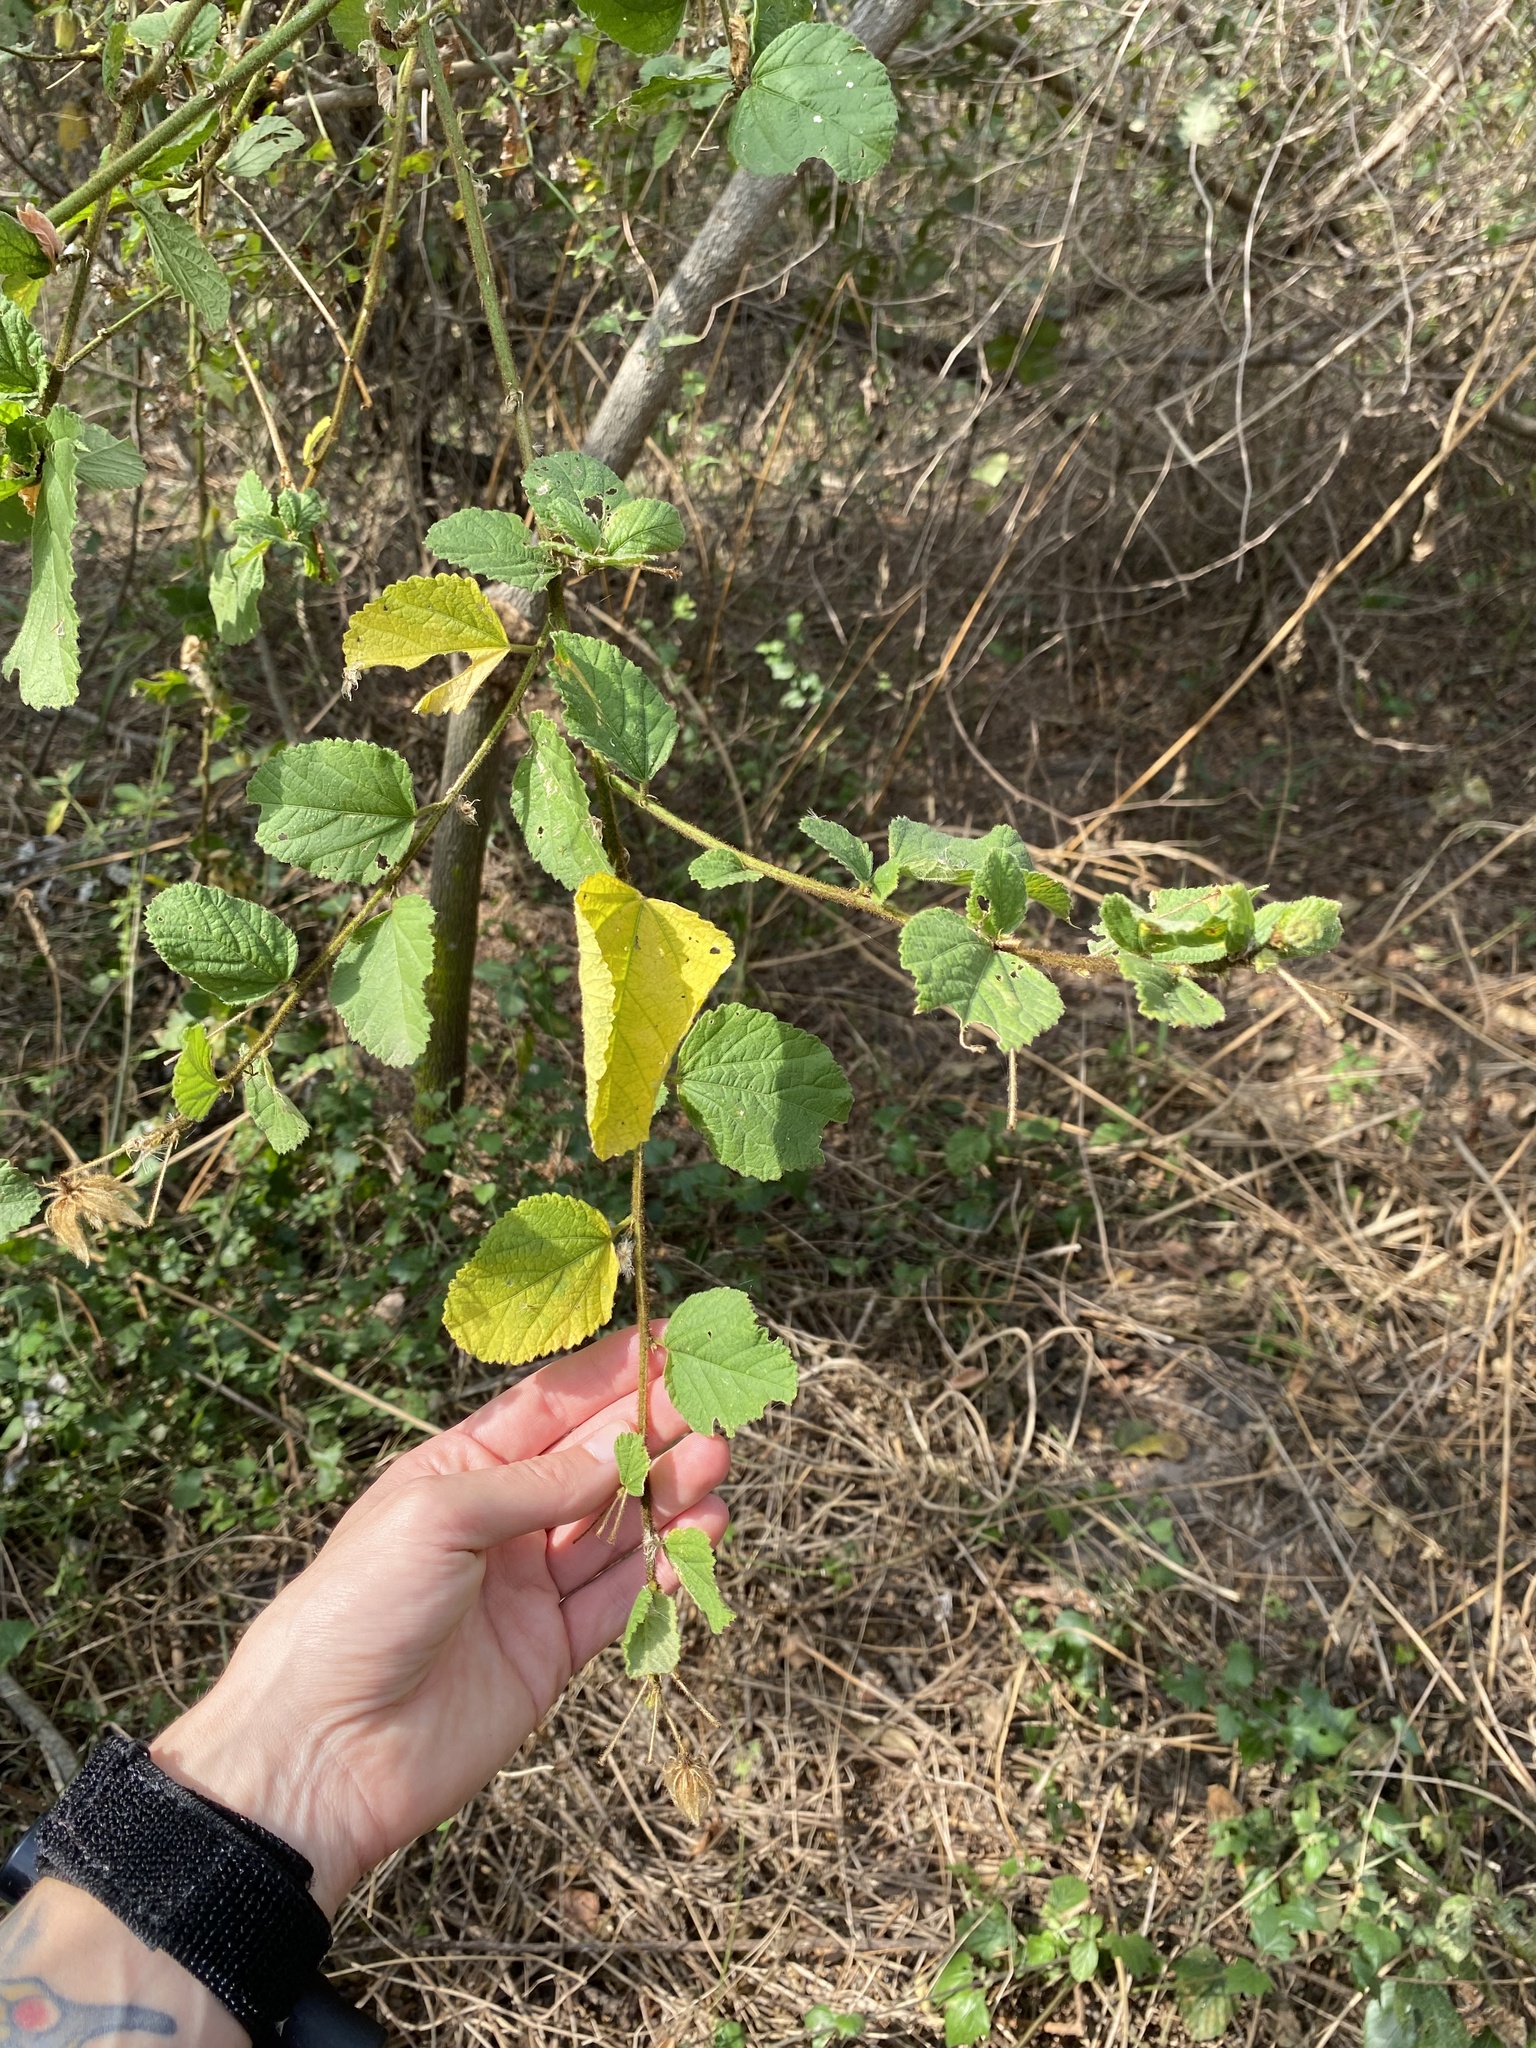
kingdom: Plantae
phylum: Tracheophyta
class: Magnoliopsida
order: Malvales
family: Malvaceae
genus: Hibiscus
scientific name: Hibiscus fuscus
